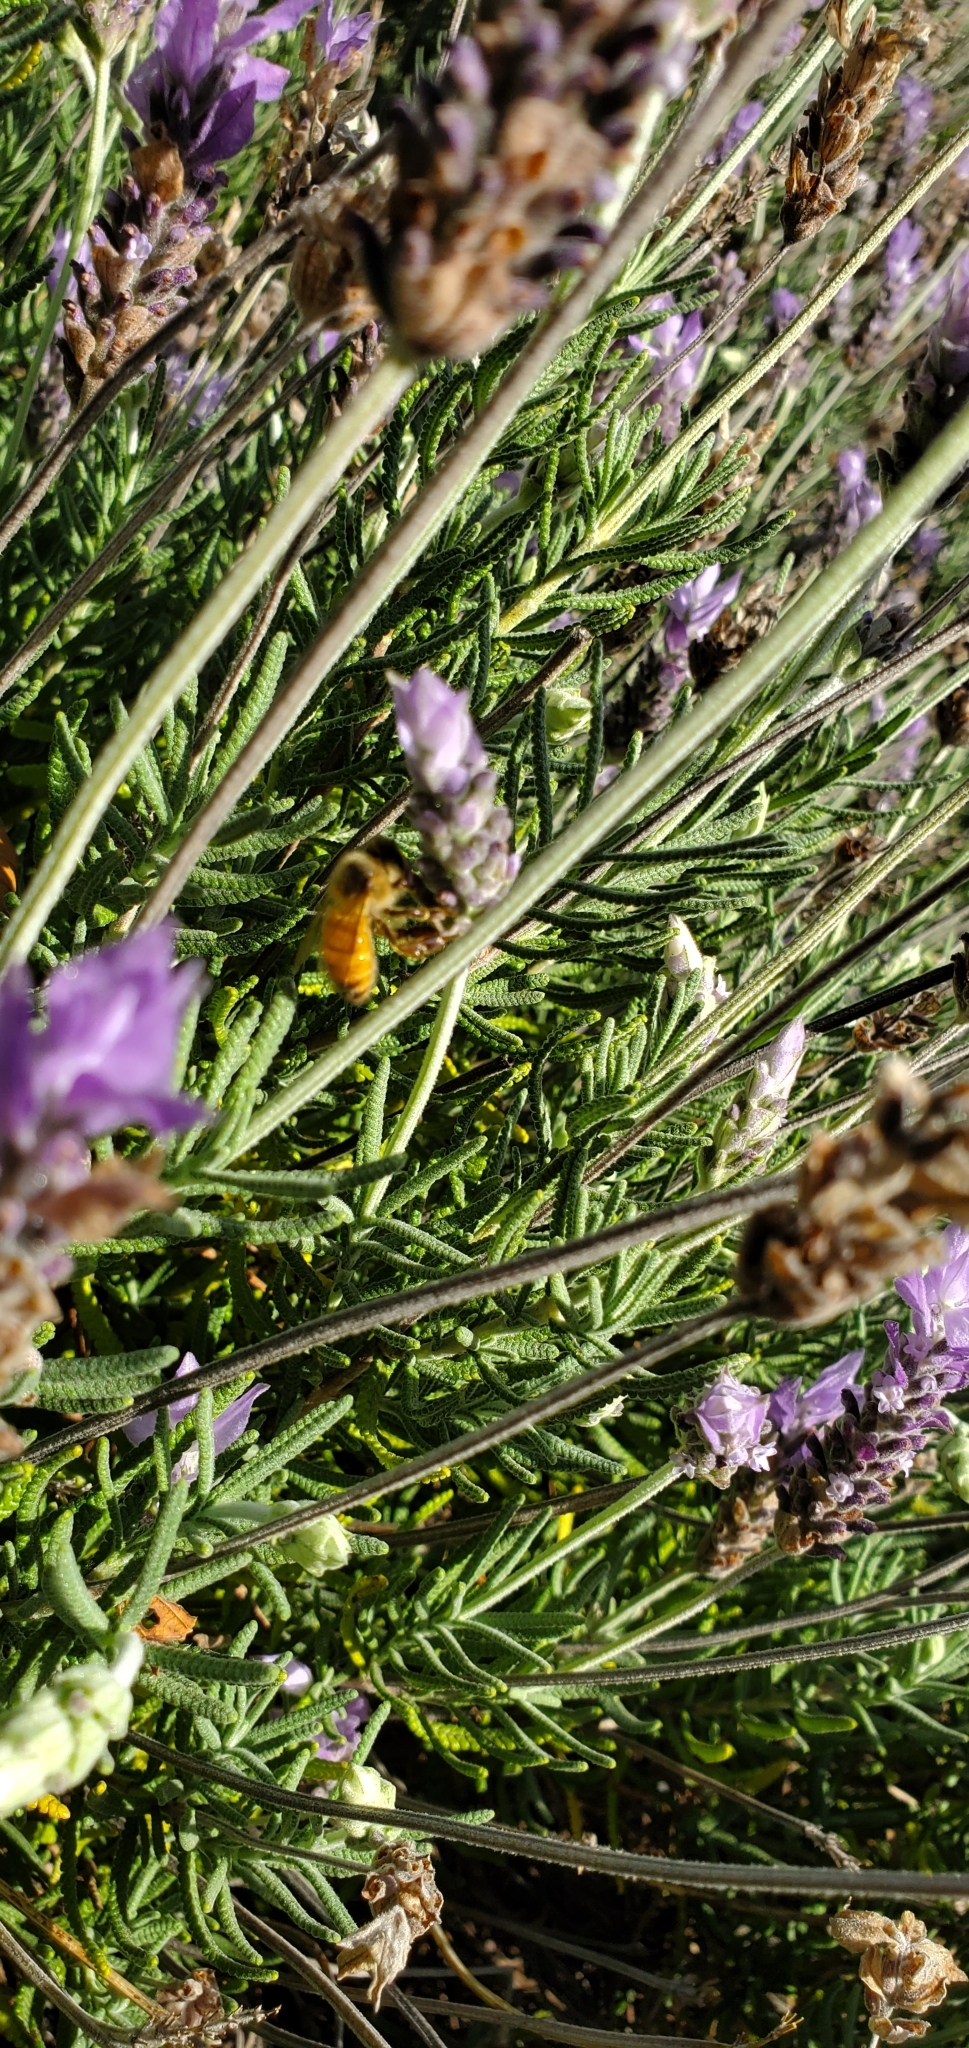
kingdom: Animalia
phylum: Arthropoda
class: Insecta
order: Hymenoptera
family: Apidae
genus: Apis
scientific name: Apis mellifera
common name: Honey bee
